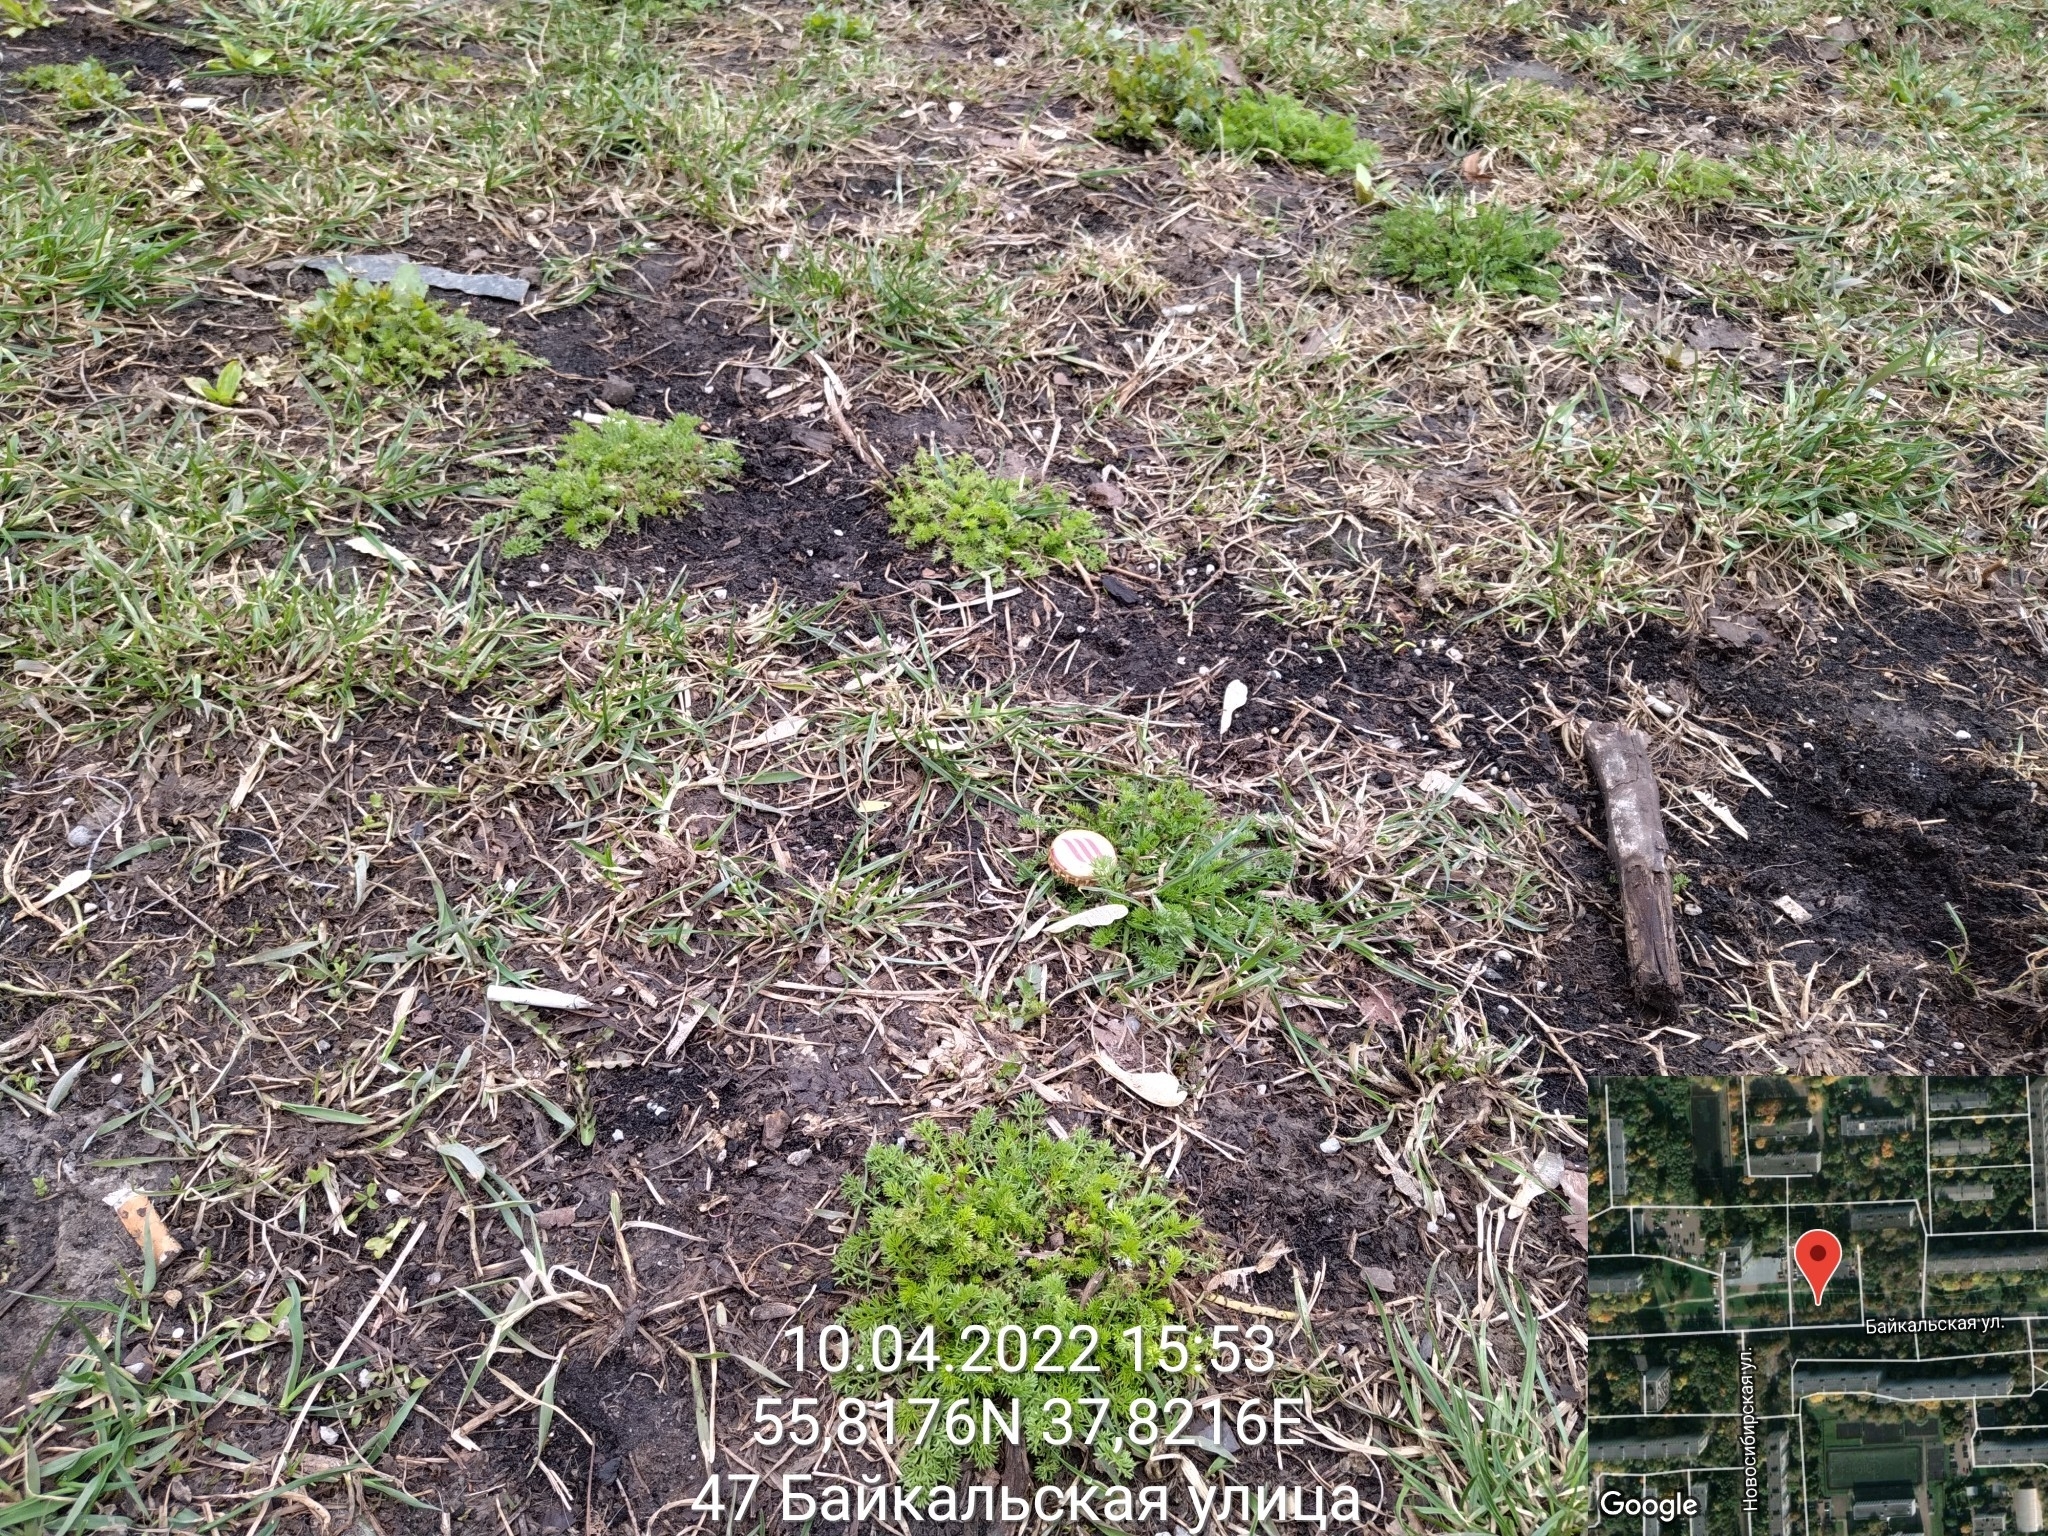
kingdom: Plantae
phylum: Tracheophyta
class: Magnoliopsida
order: Asterales
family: Asteraceae
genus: Tripleurospermum
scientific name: Tripleurospermum inodorum
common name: Scentless mayweed
